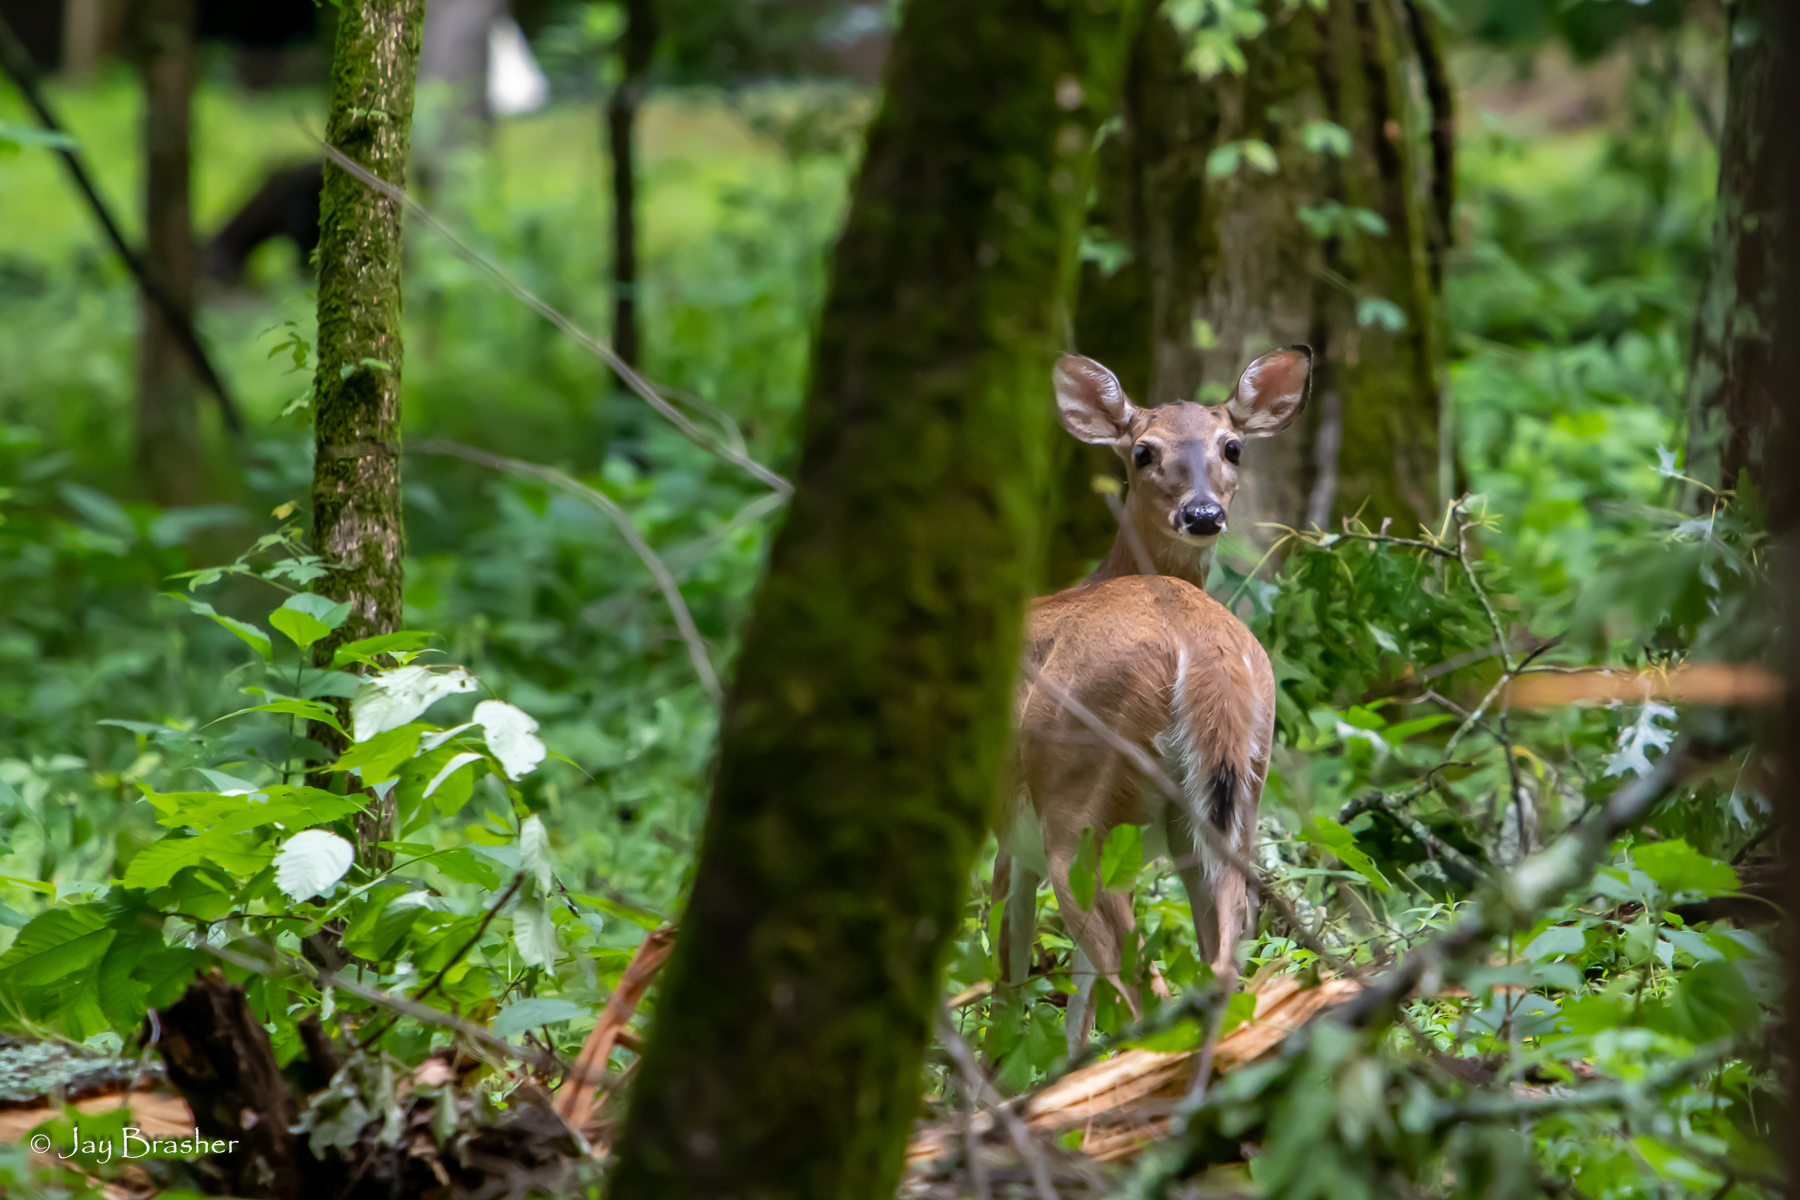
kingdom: Animalia
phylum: Chordata
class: Mammalia
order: Artiodactyla
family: Cervidae
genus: Odocoileus
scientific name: Odocoileus virginianus
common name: White-tailed deer
